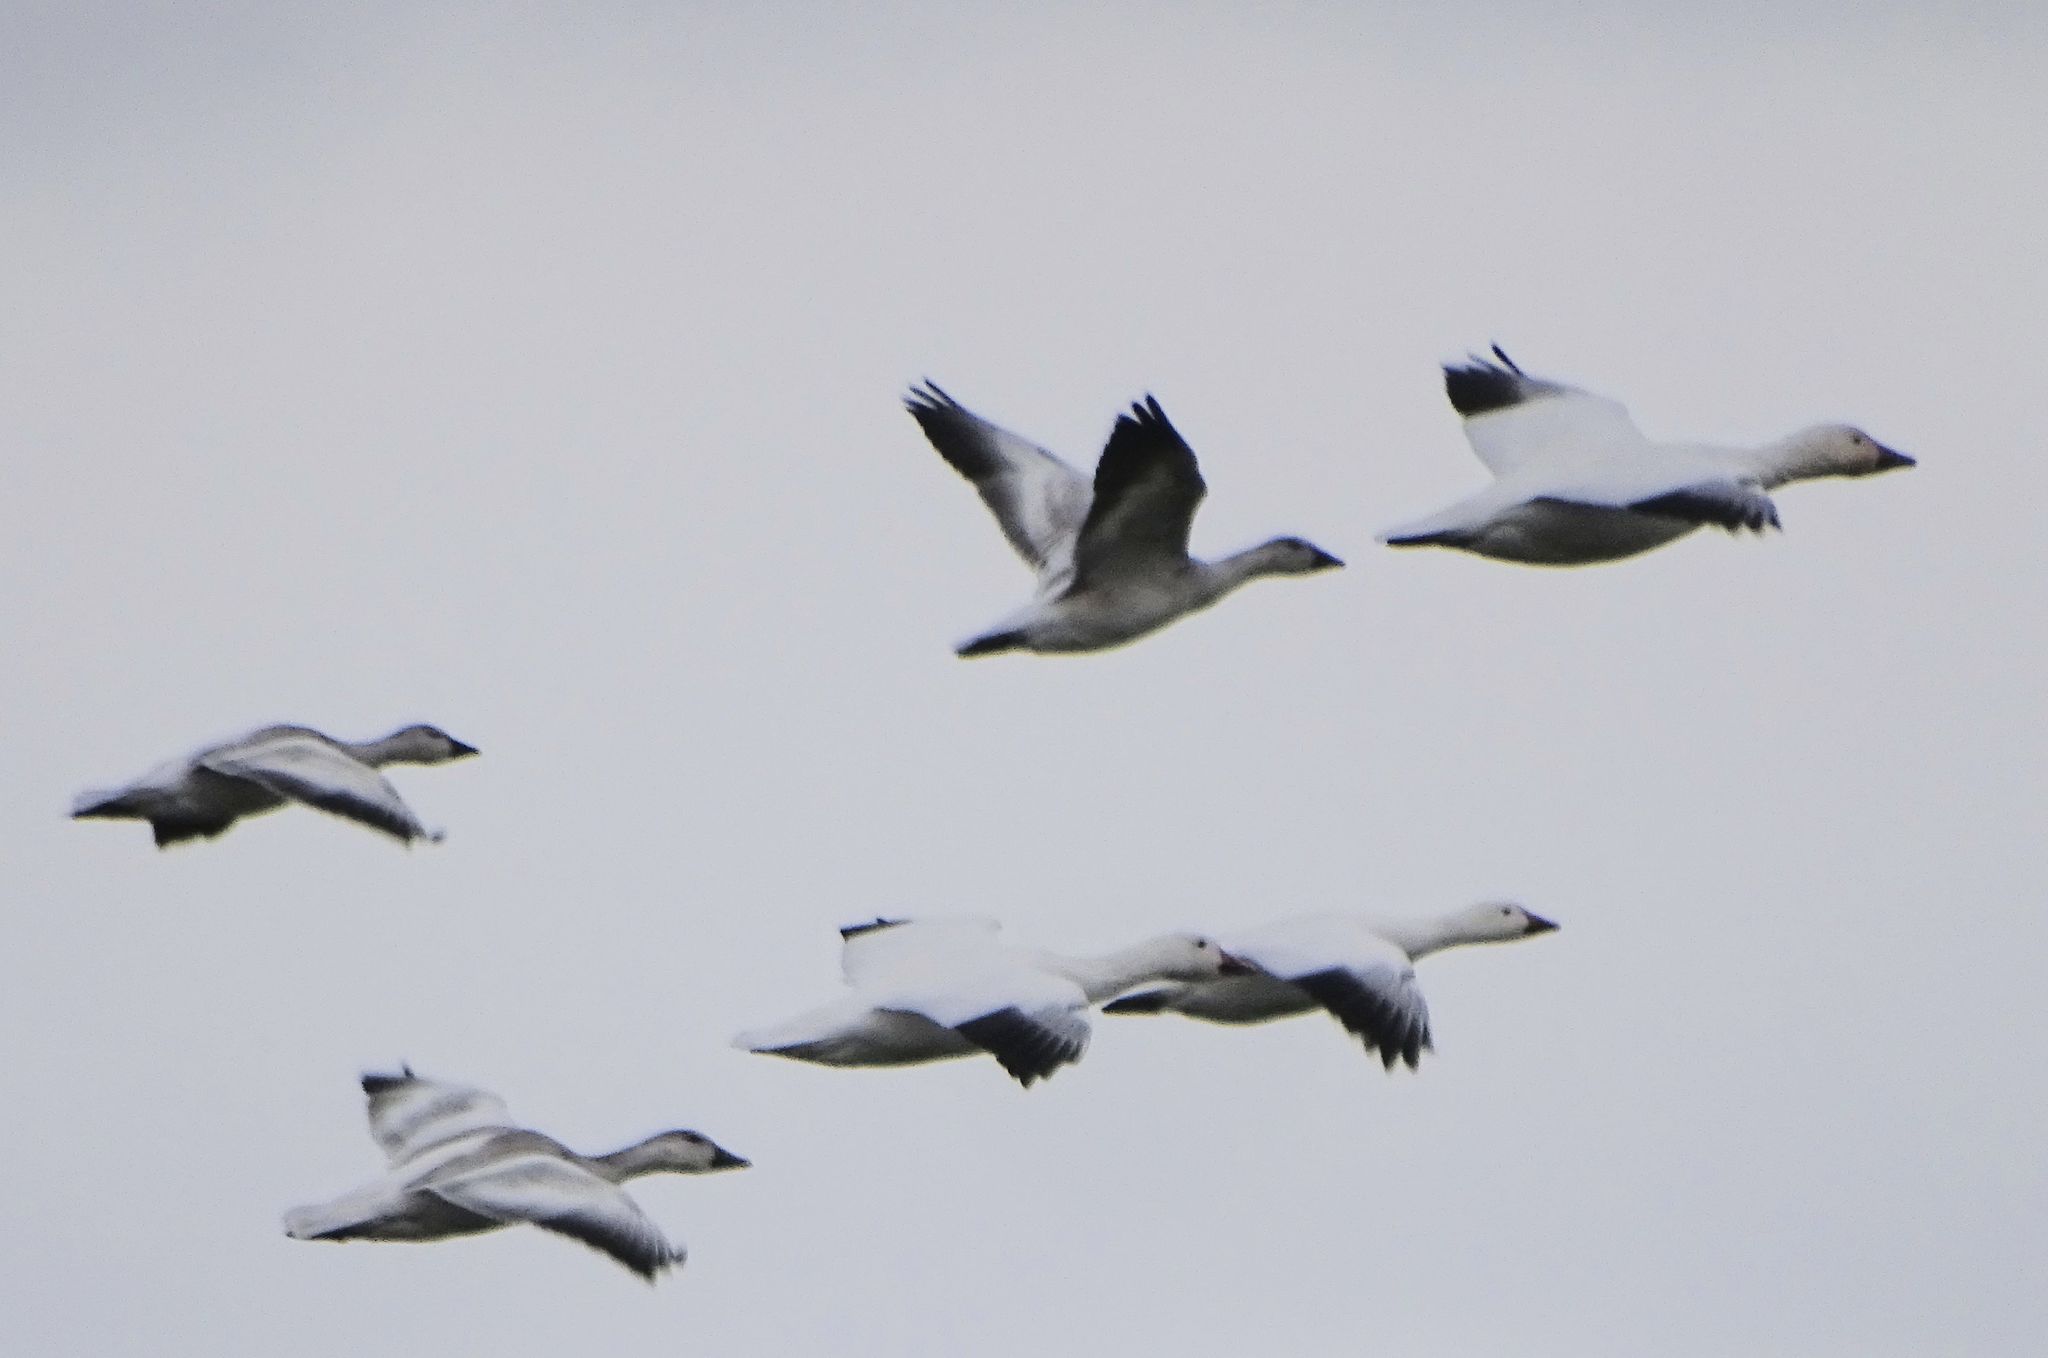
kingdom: Animalia
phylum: Chordata
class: Aves
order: Anseriformes
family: Anatidae
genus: Anser
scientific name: Anser caerulescens
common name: Snow goose
